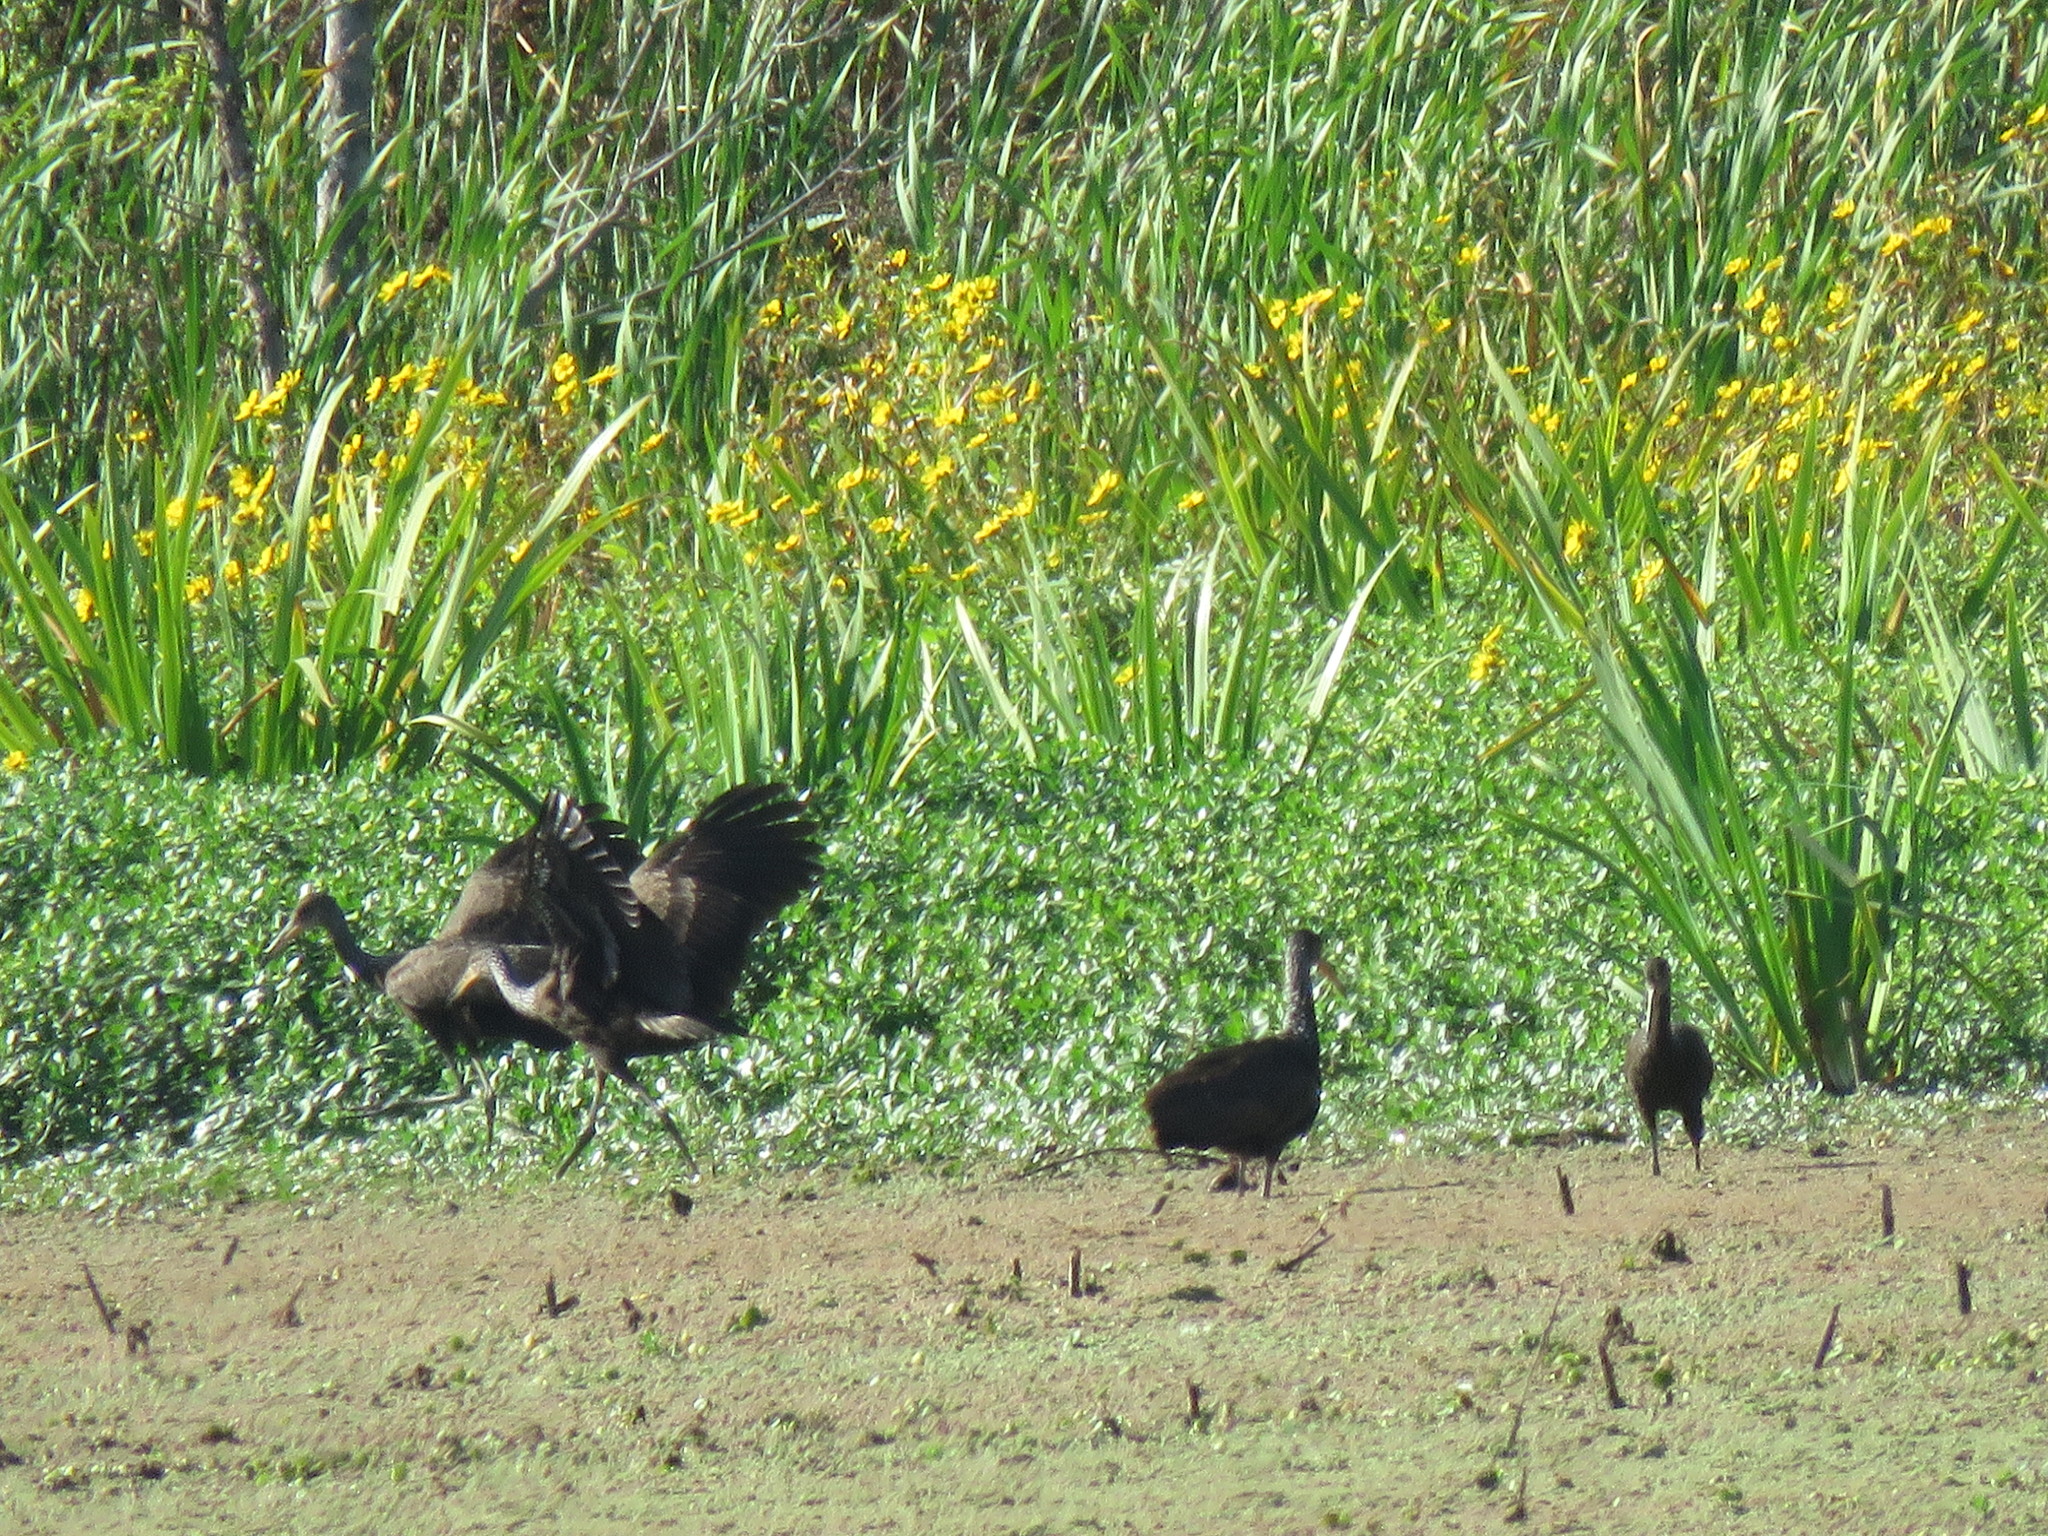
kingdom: Animalia
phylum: Chordata
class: Aves
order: Gruiformes
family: Aramidae
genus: Aramus
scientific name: Aramus guarauna
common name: Limpkin
